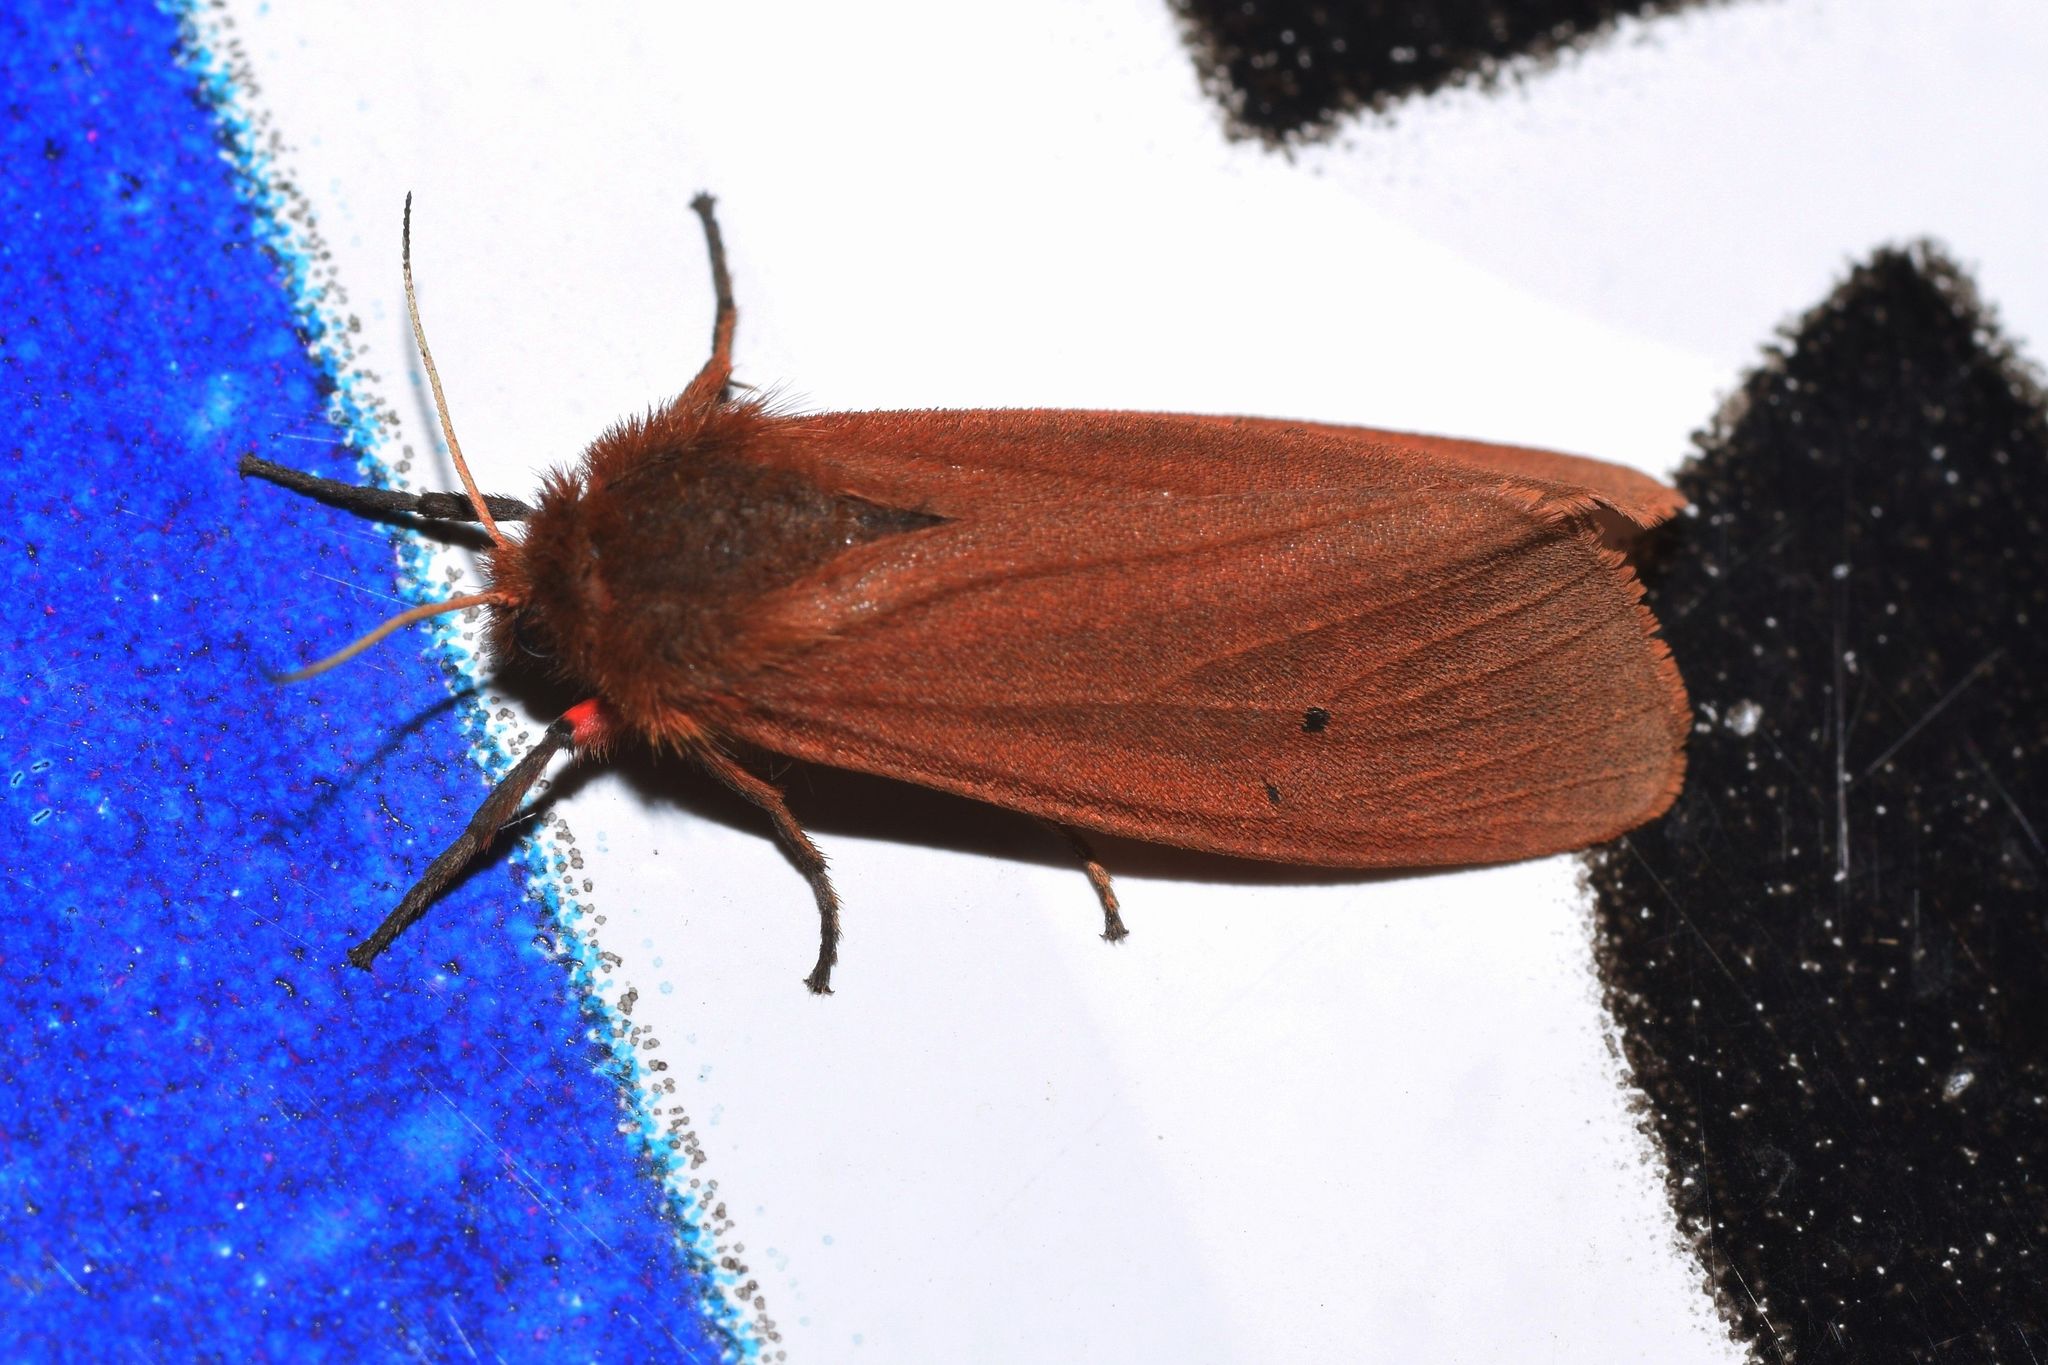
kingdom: Animalia
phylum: Arthropoda
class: Insecta
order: Lepidoptera
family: Erebidae
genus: Phragmatobia
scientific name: Phragmatobia fuliginosa
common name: Ruby tiger
